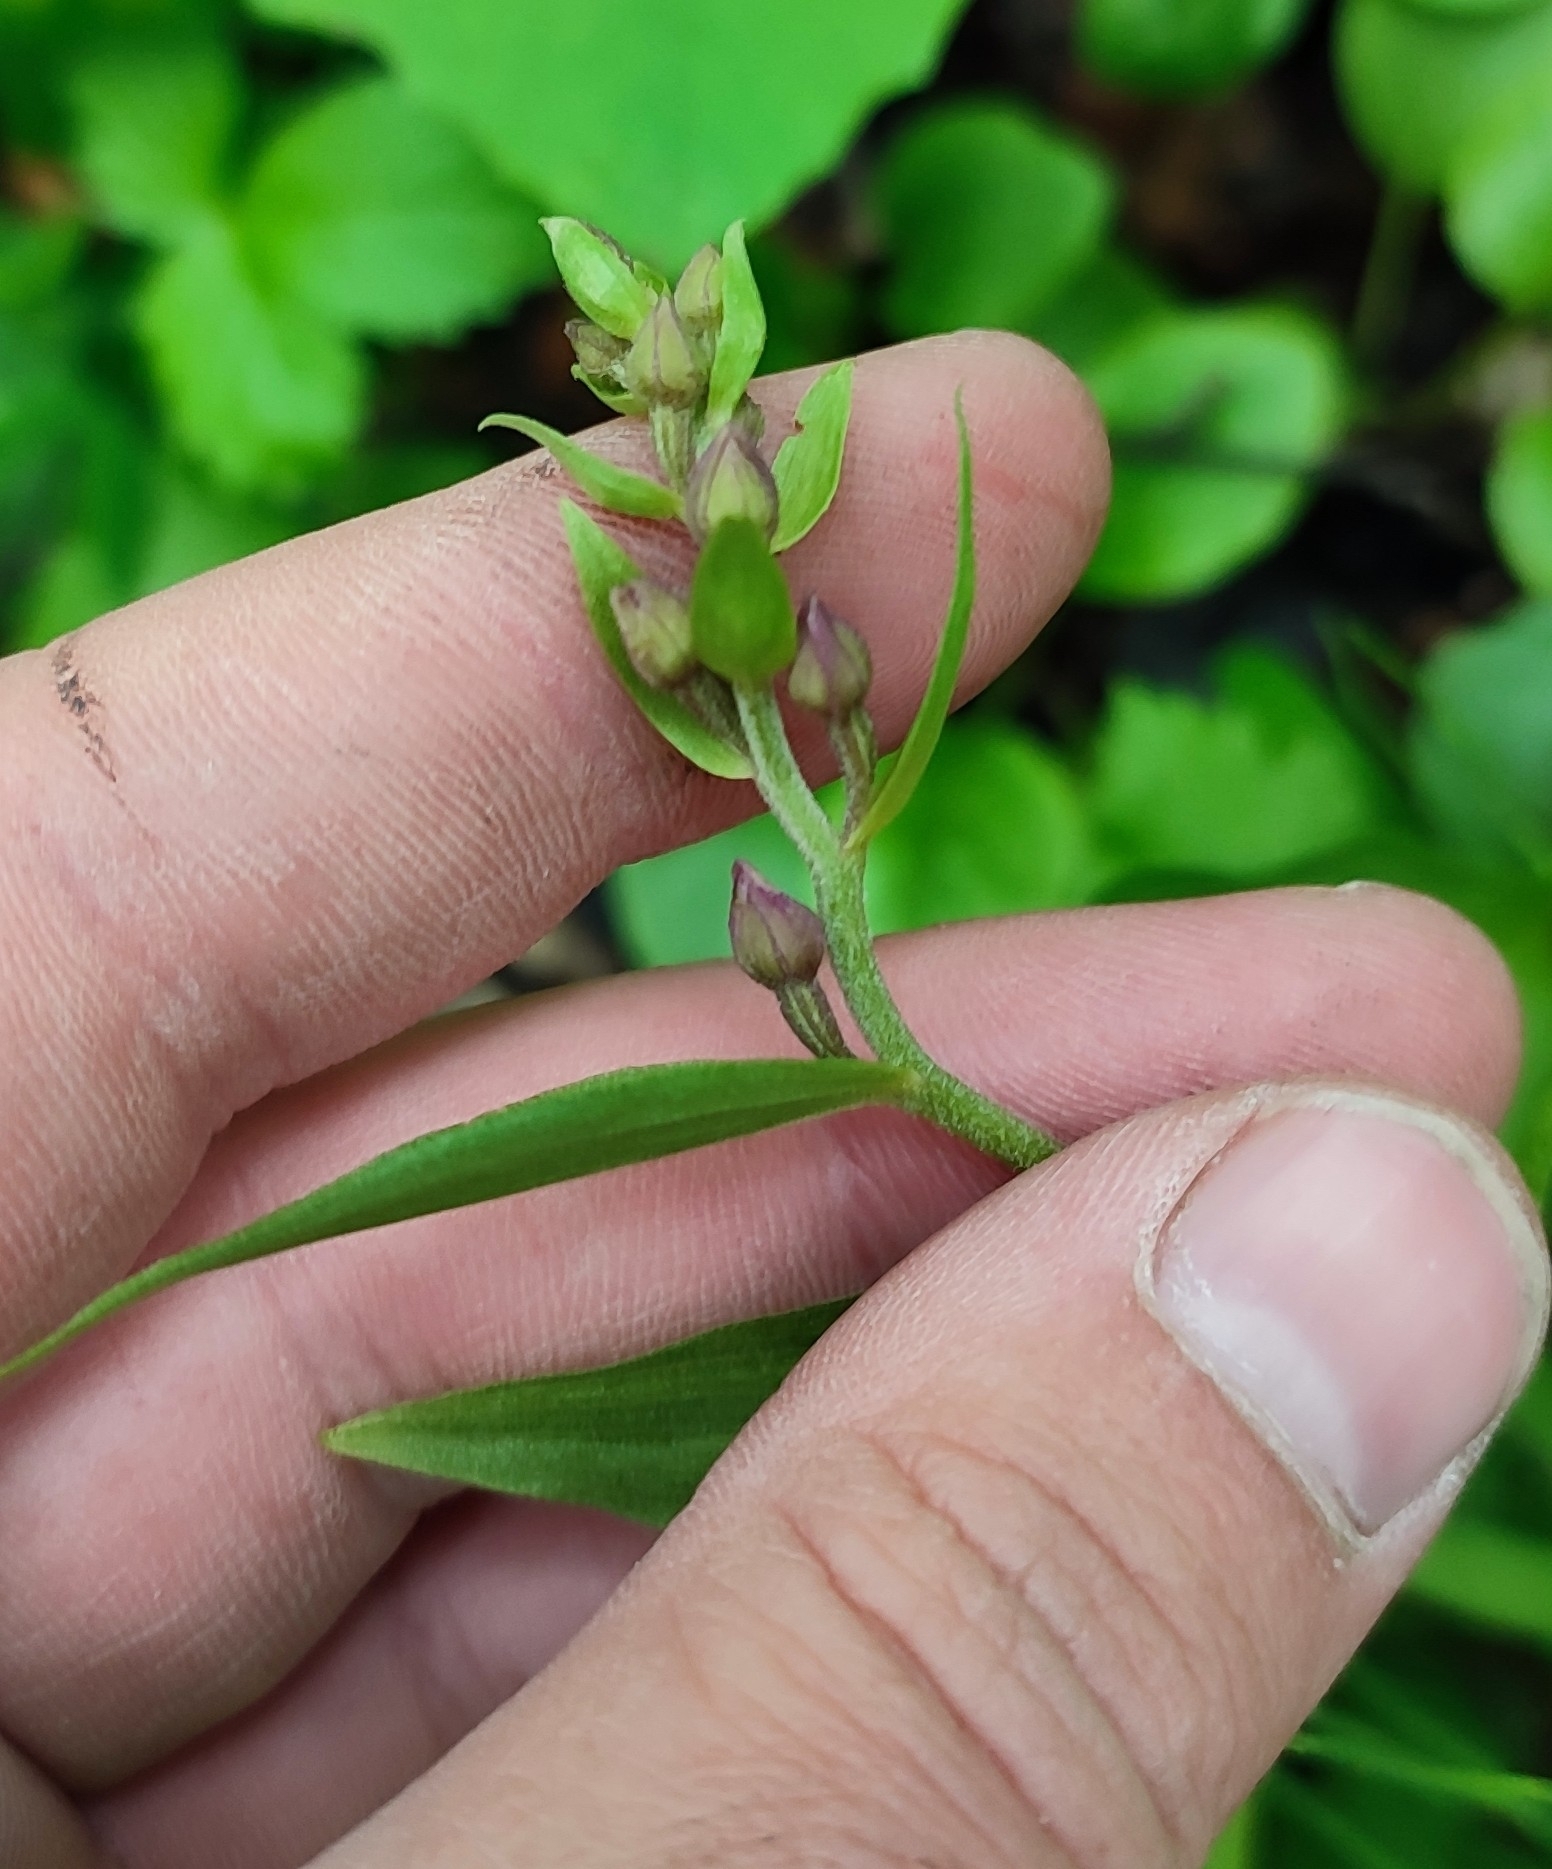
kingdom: Plantae
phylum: Tracheophyta
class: Liliopsida
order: Asparagales
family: Orchidaceae
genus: Epipactis
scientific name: Epipactis helleborine
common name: Broad-leaved helleborine
